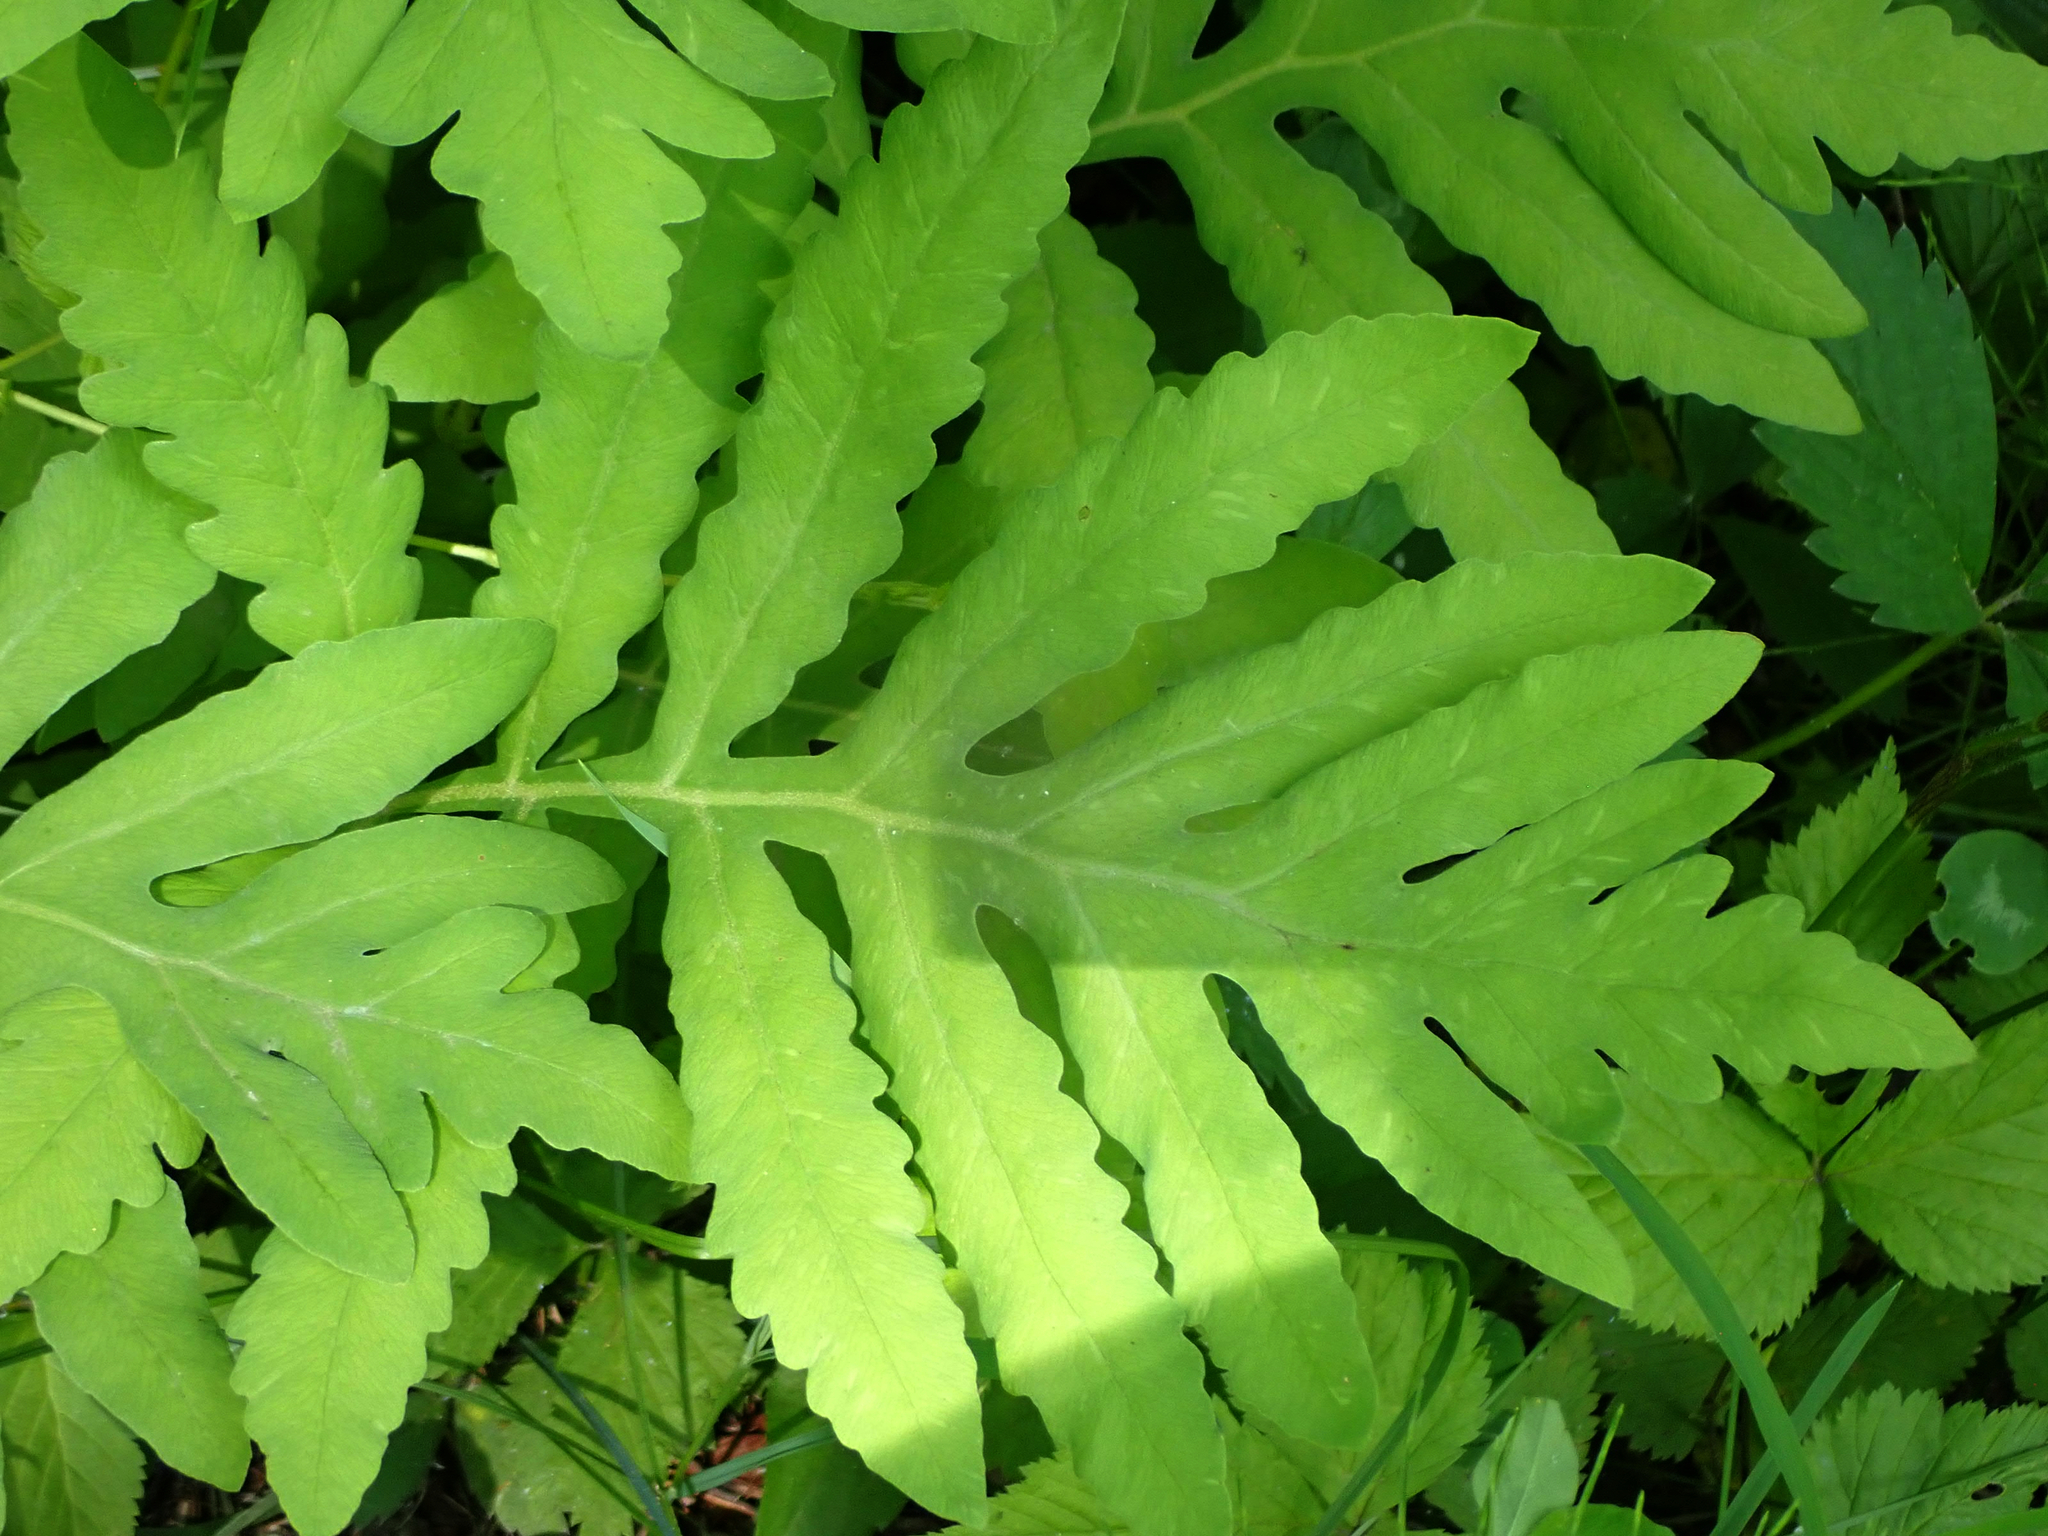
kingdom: Plantae
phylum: Tracheophyta
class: Polypodiopsida
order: Polypodiales
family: Onocleaceae
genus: Onoclea
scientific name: Onoclea sensibilis
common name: Sensitive fern
